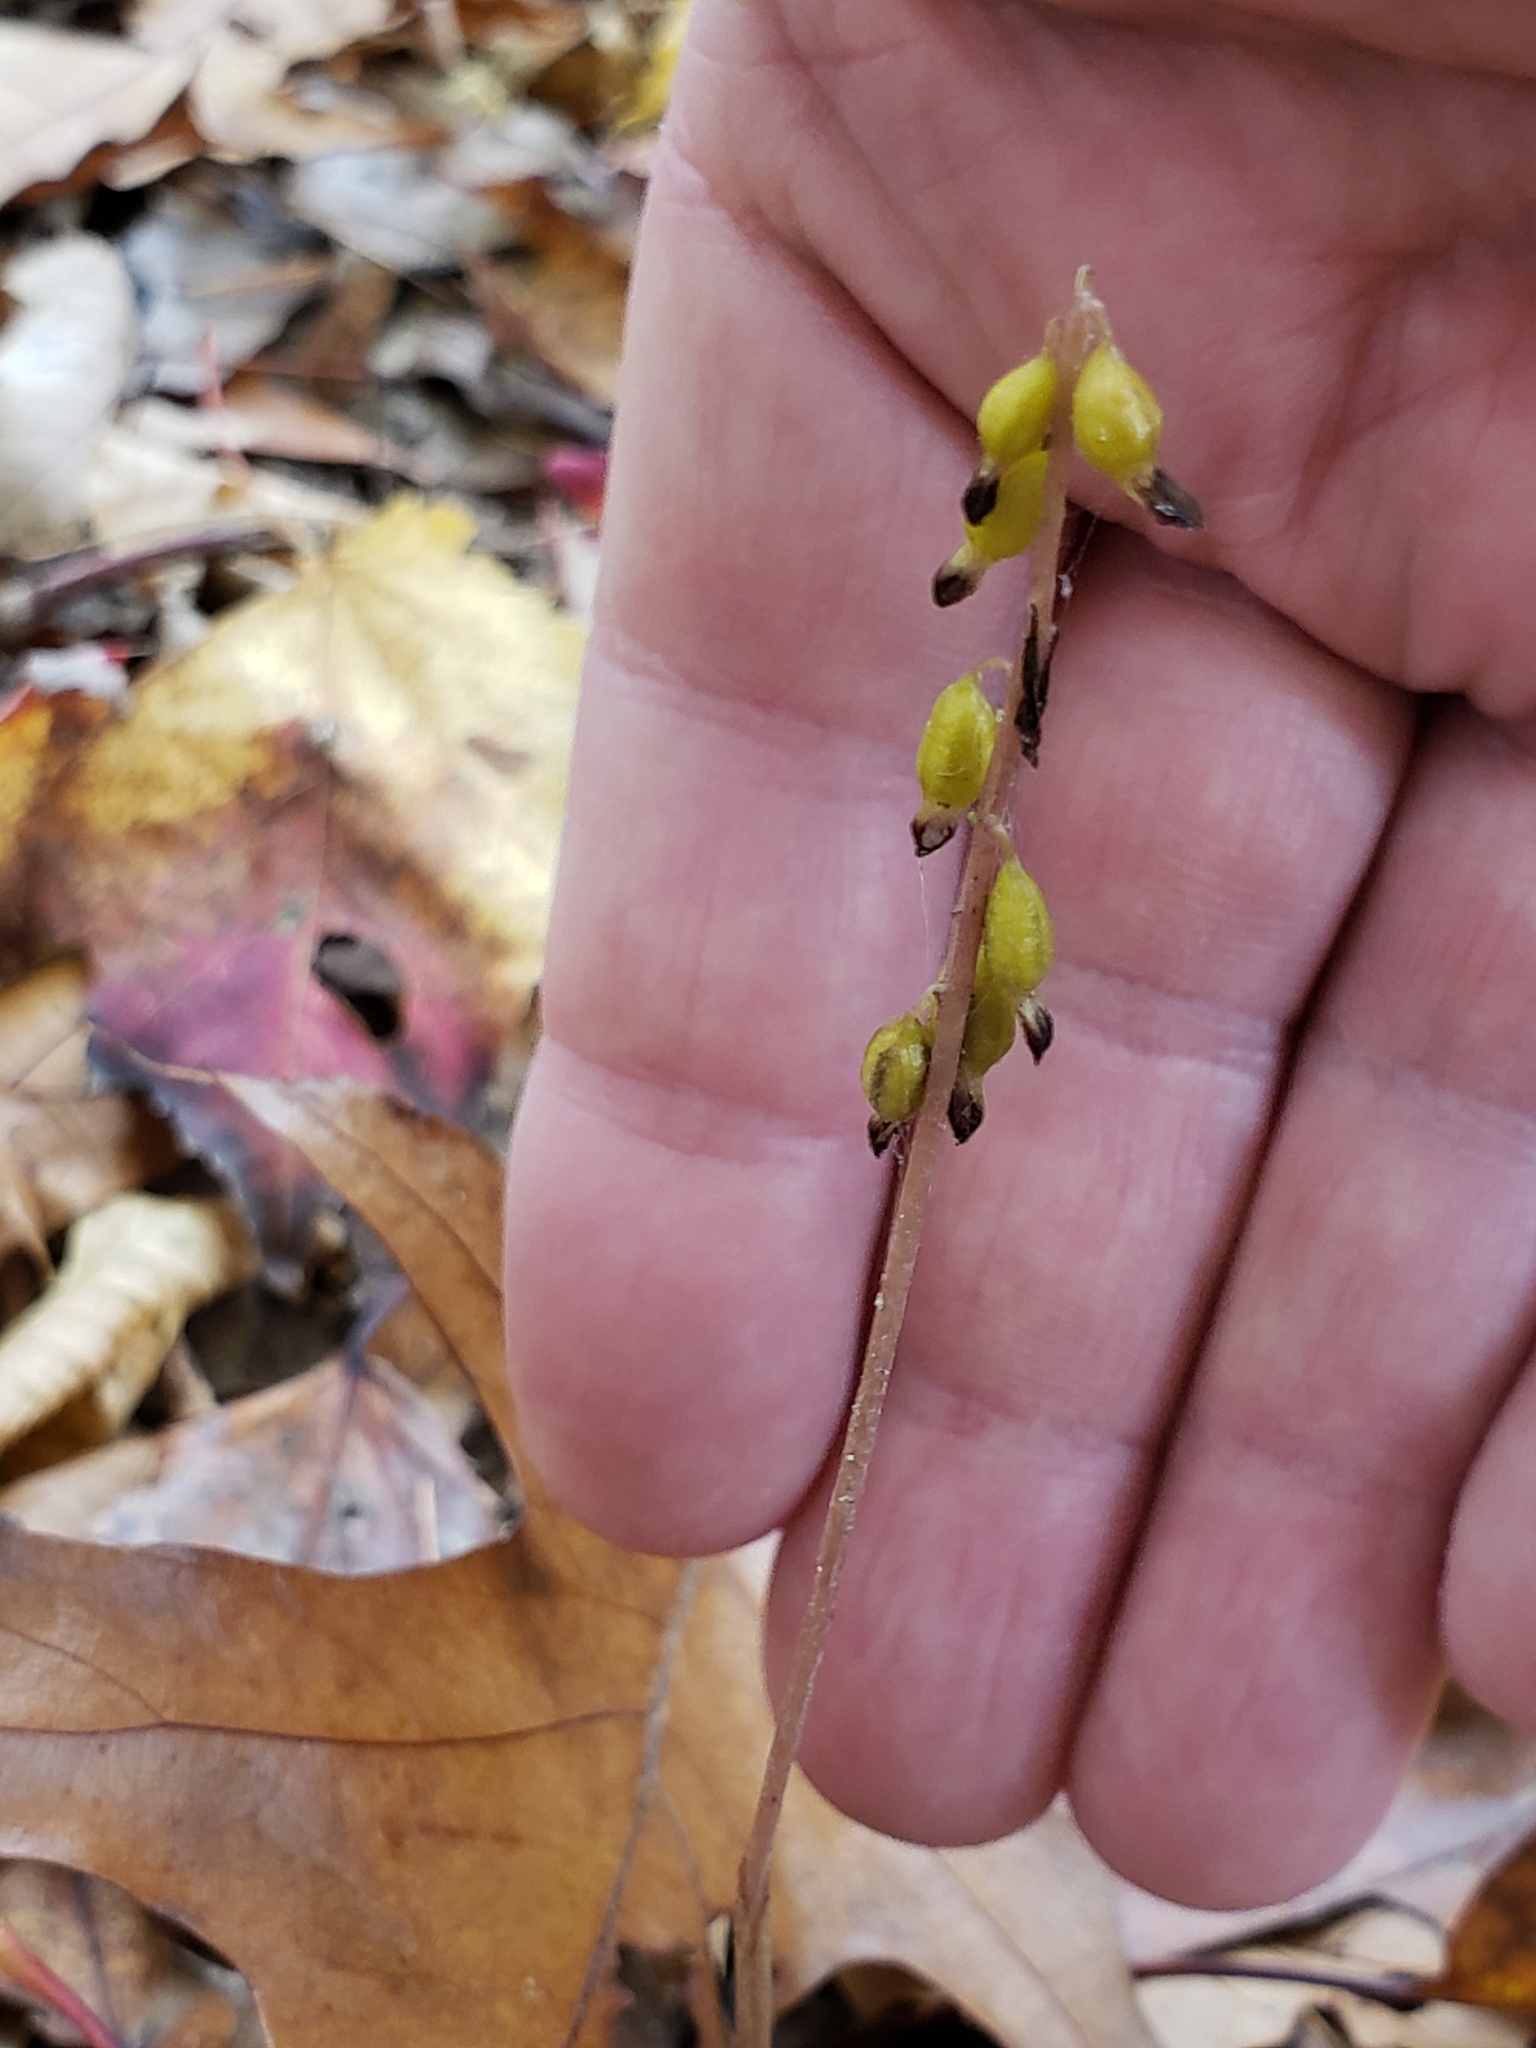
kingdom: Plantae
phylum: Tracheophyta
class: Liliopsida
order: Asparagales
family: Orchidaceae
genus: Corallorhiza
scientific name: Corallorhiza odontorhiza
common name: Autumn coralroot
